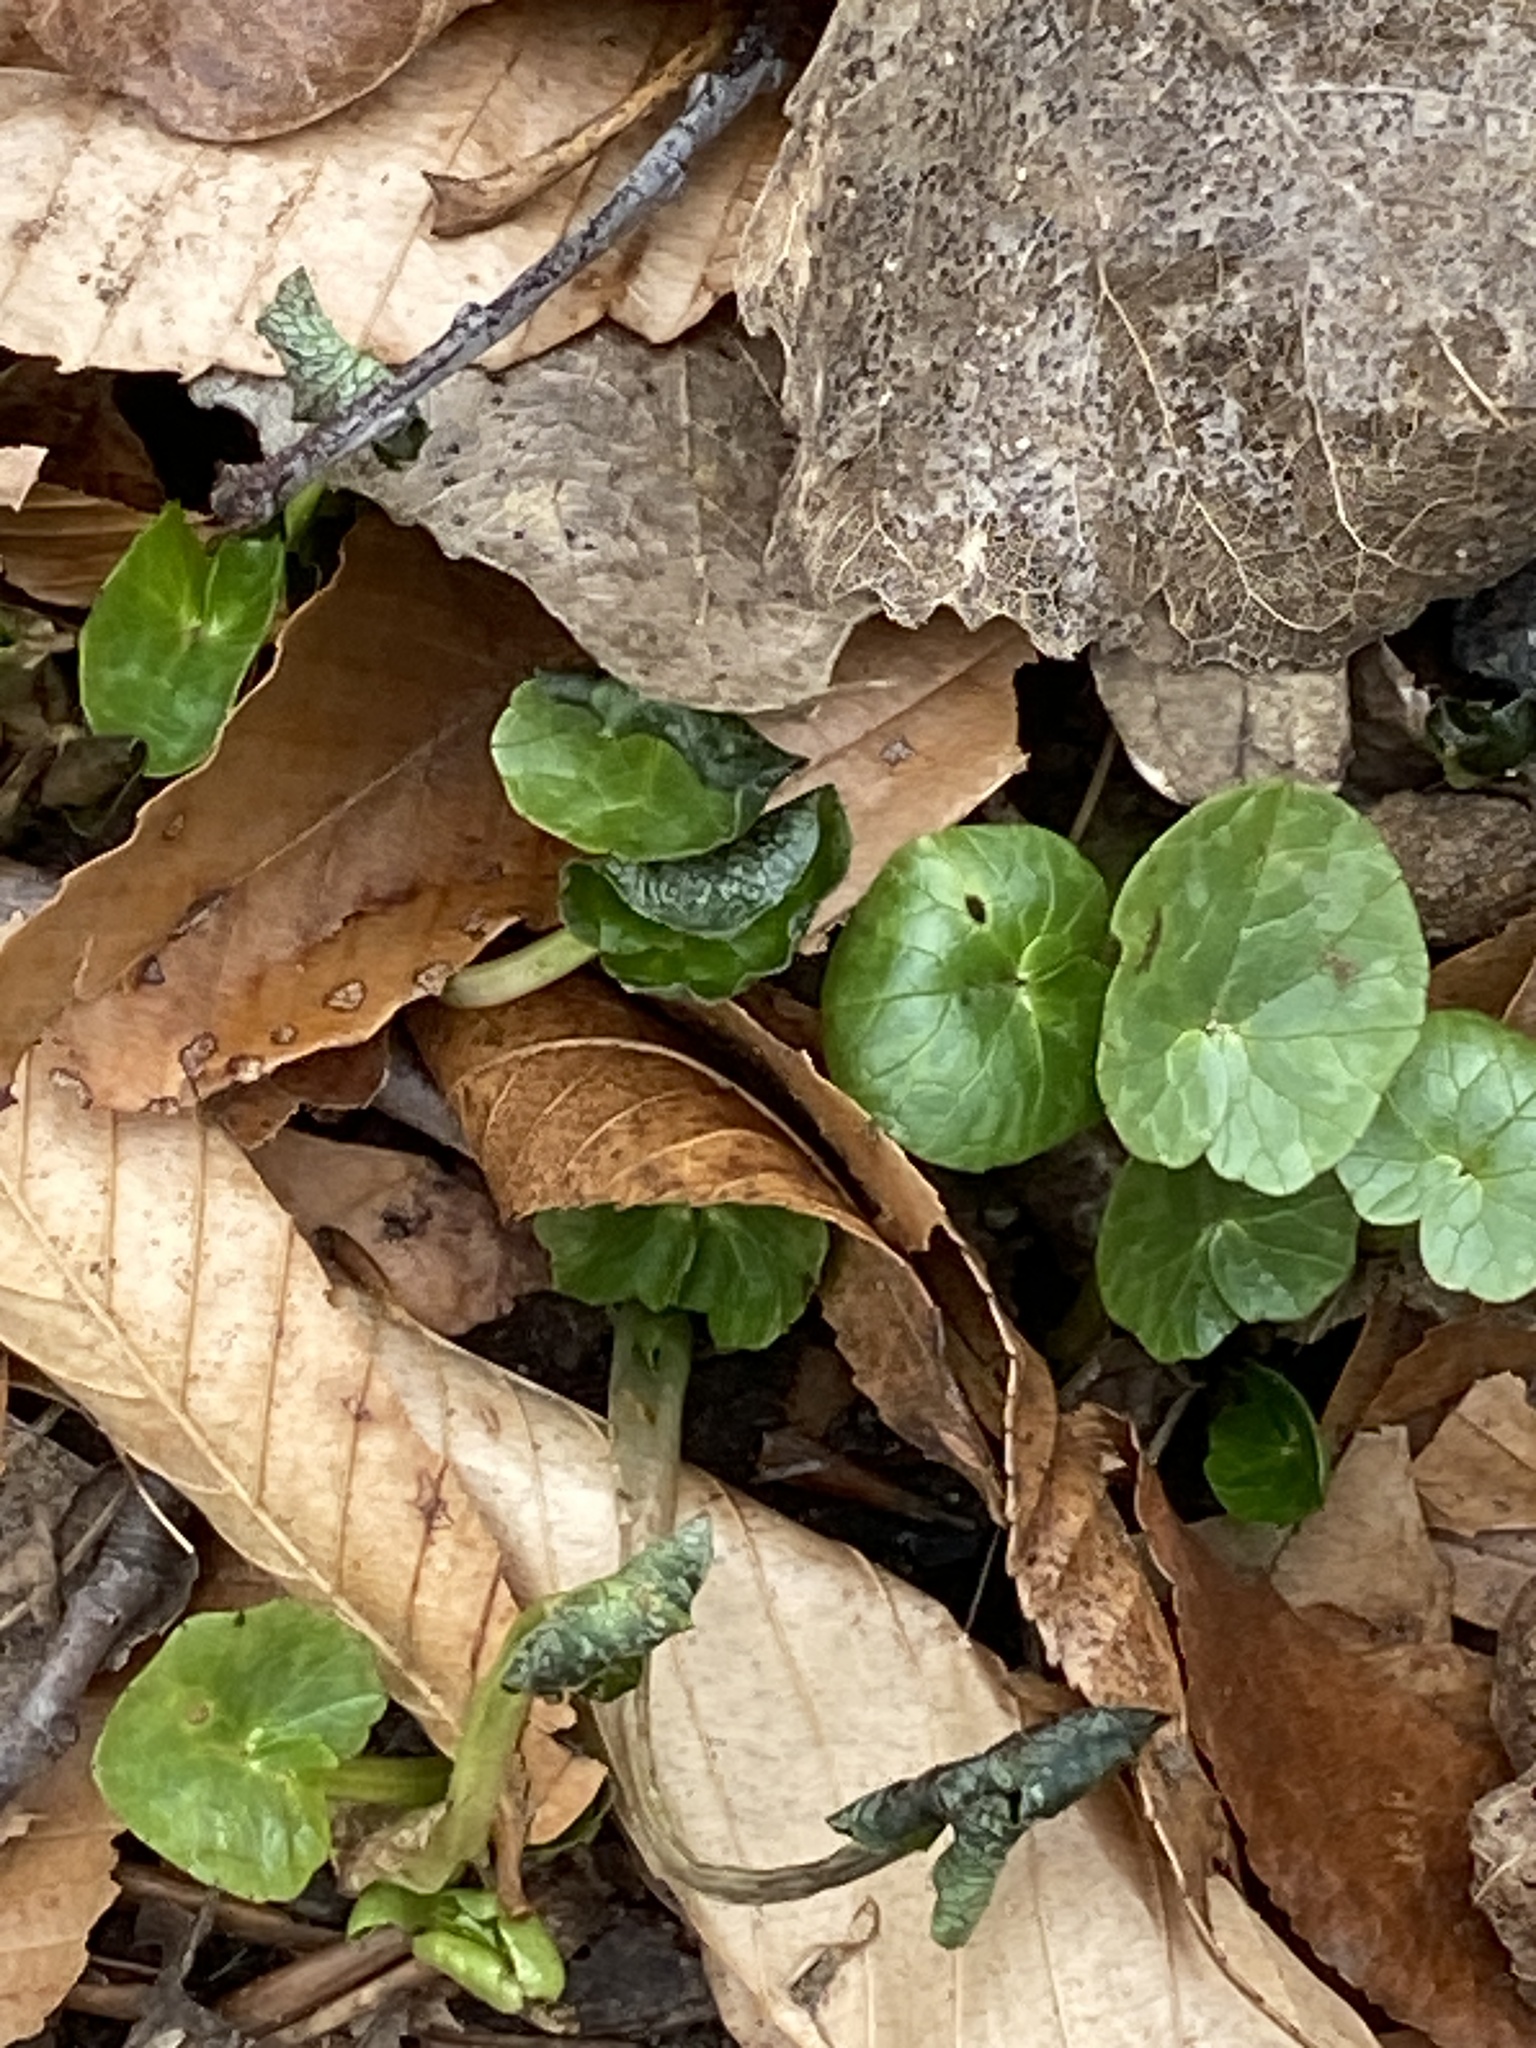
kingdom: Plantae
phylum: Tracheophyta
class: Magnoliopsida
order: Ranunculales
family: Ranunculaceae
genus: Ficaria
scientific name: Ficaria verna
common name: Lesser celandine
